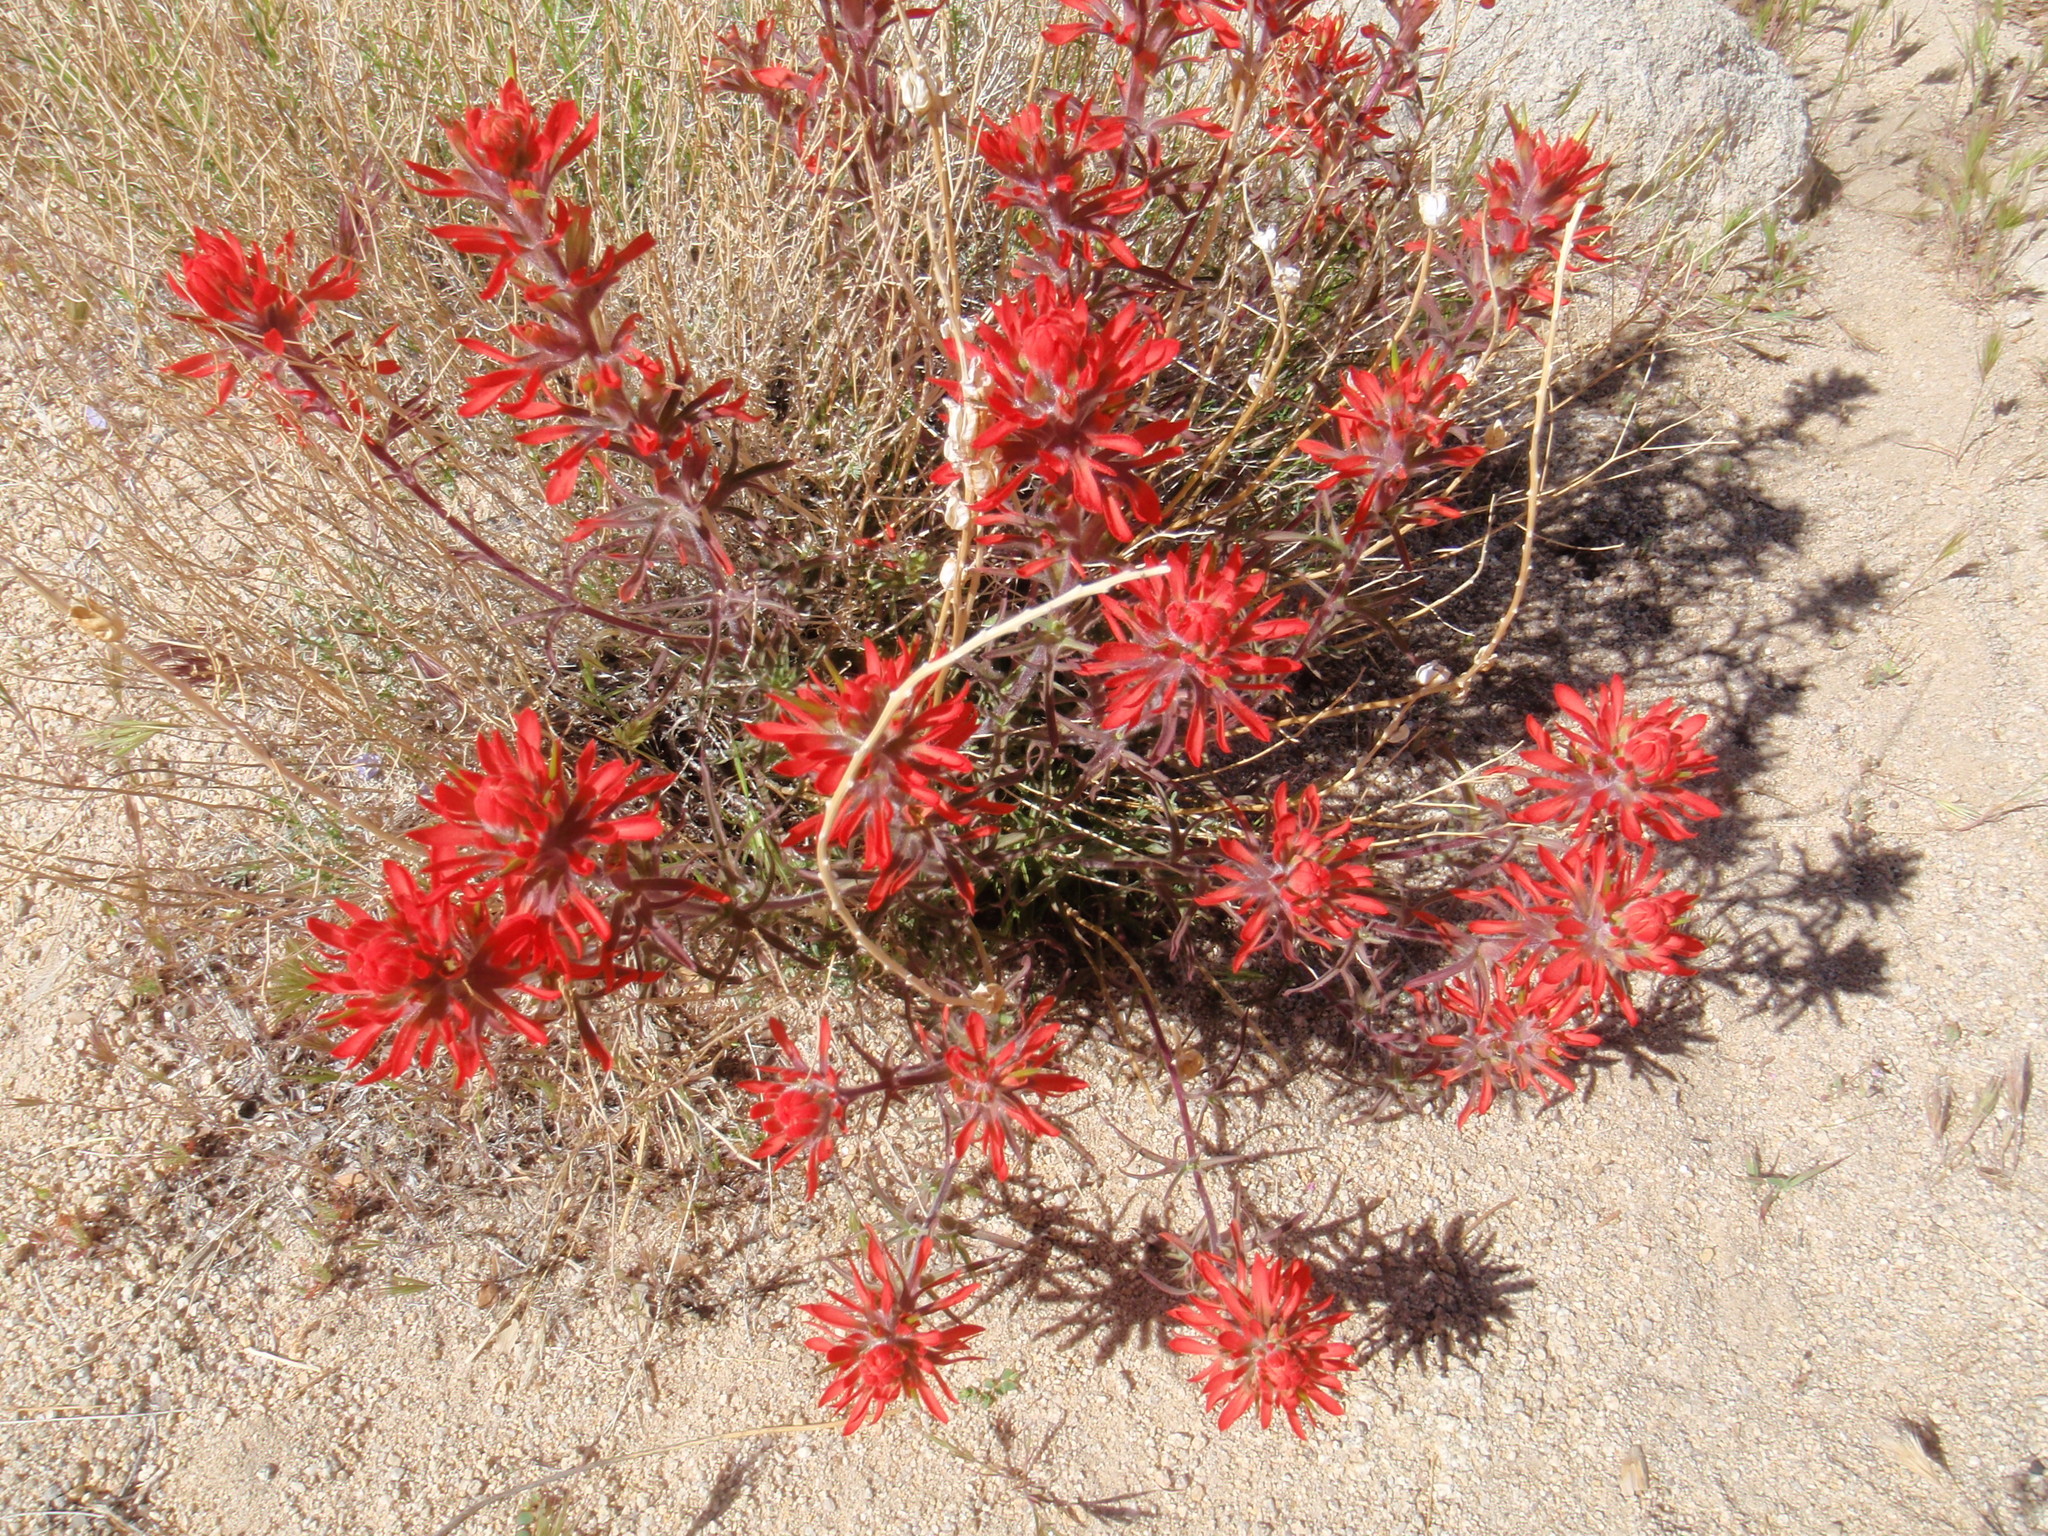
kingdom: Plantae
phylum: Tracheophyta
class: Magnoliopsida
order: Lamiales
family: Orobanchaceae
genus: Castilleja
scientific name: Castilleja chromosa
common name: Desert paintbrush
